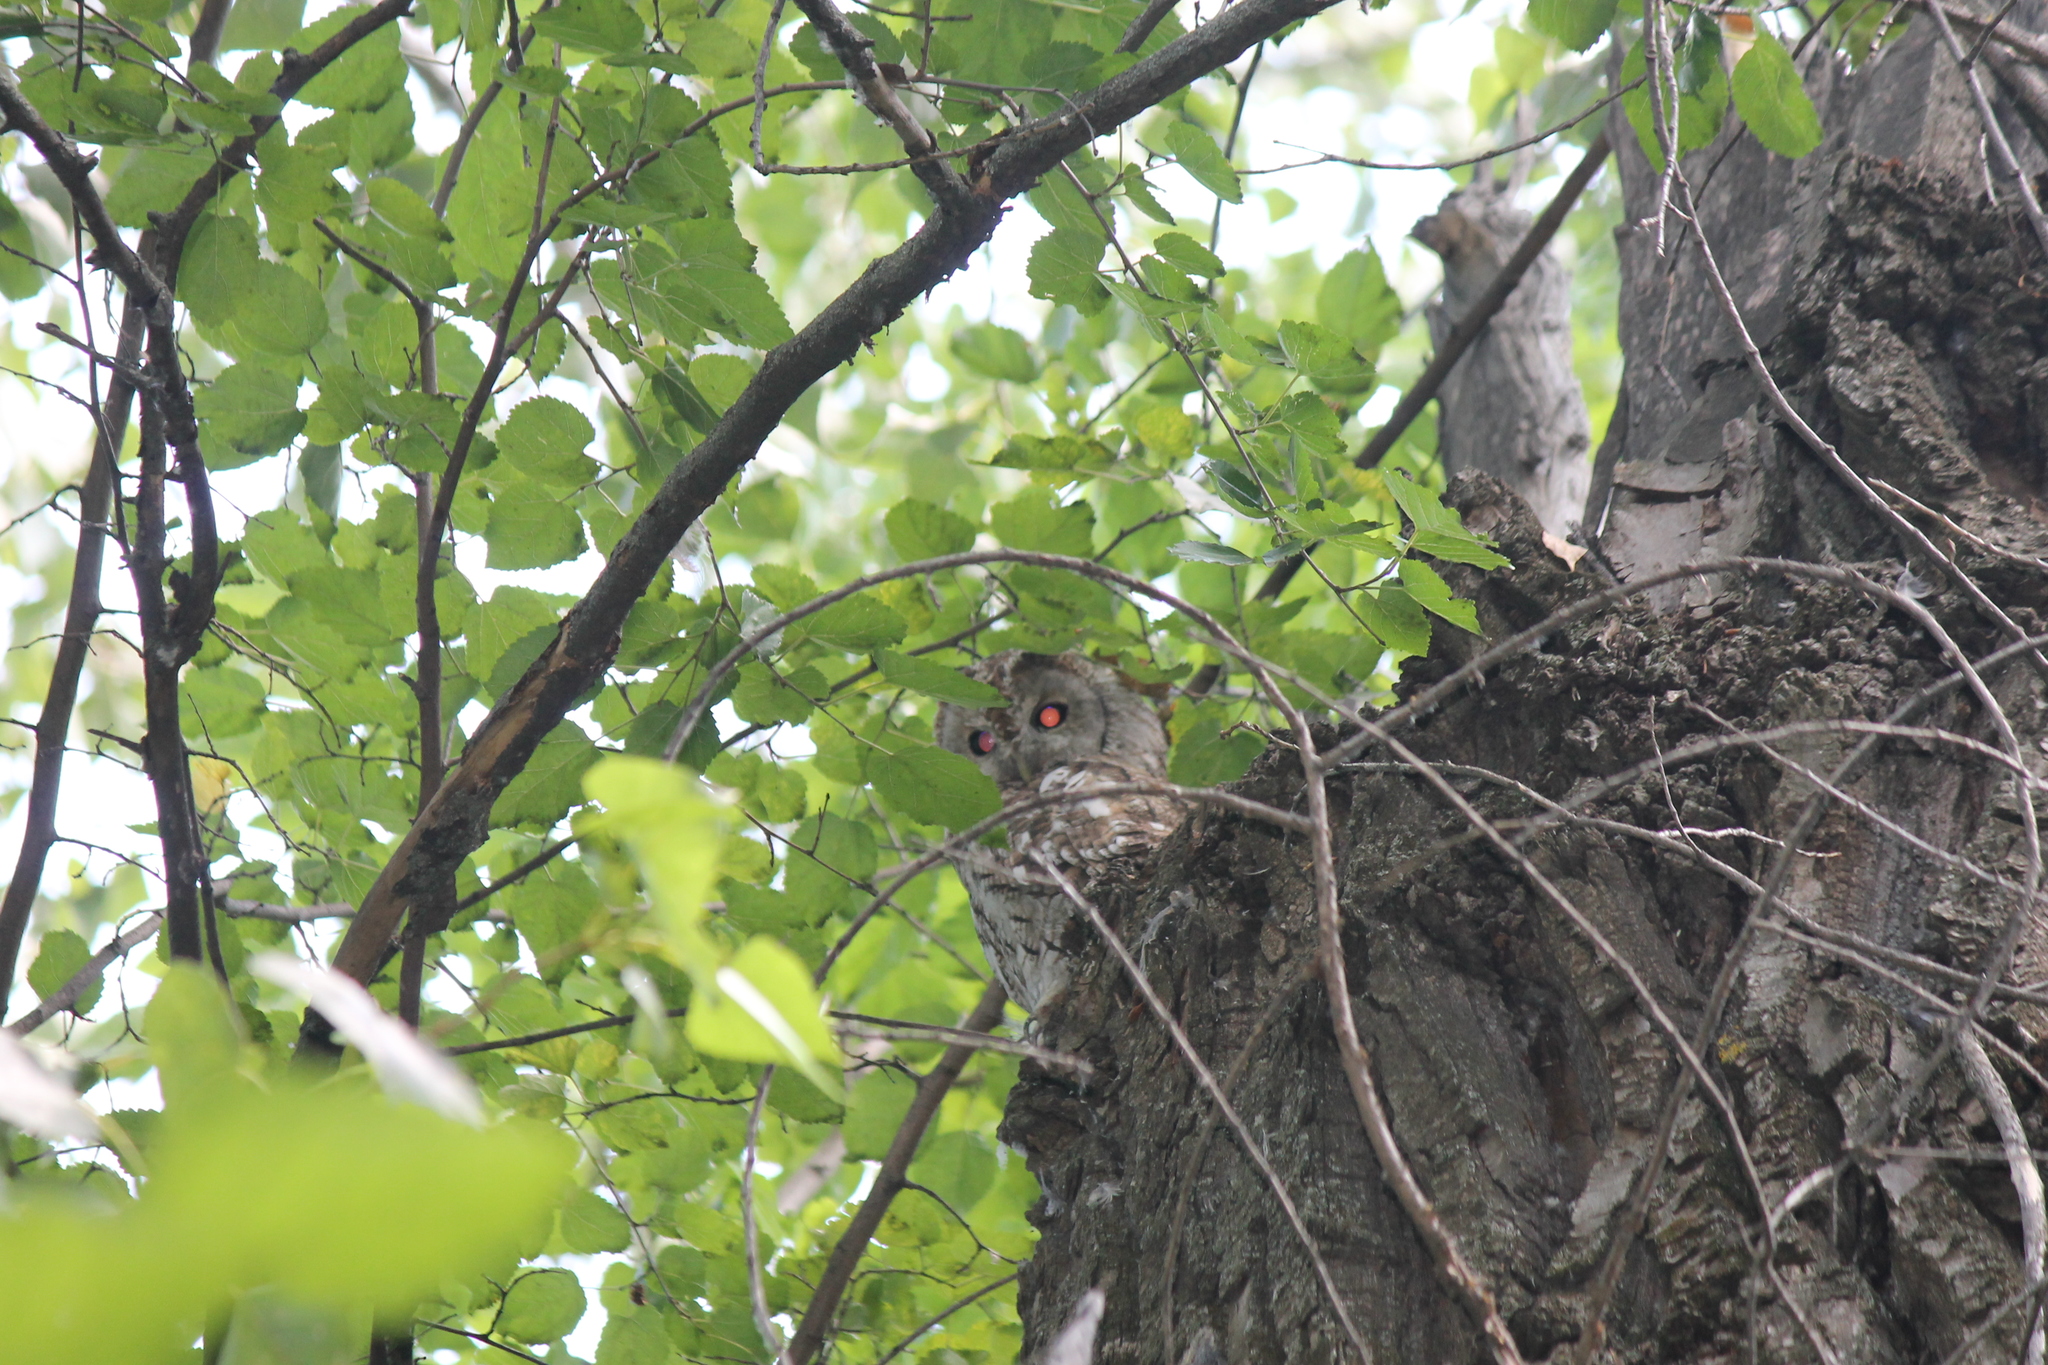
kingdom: Animalia
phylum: Chordata
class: Aves
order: Strigiformes
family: Strigidae
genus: Strix
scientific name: Strix aluco
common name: Tawny owl
